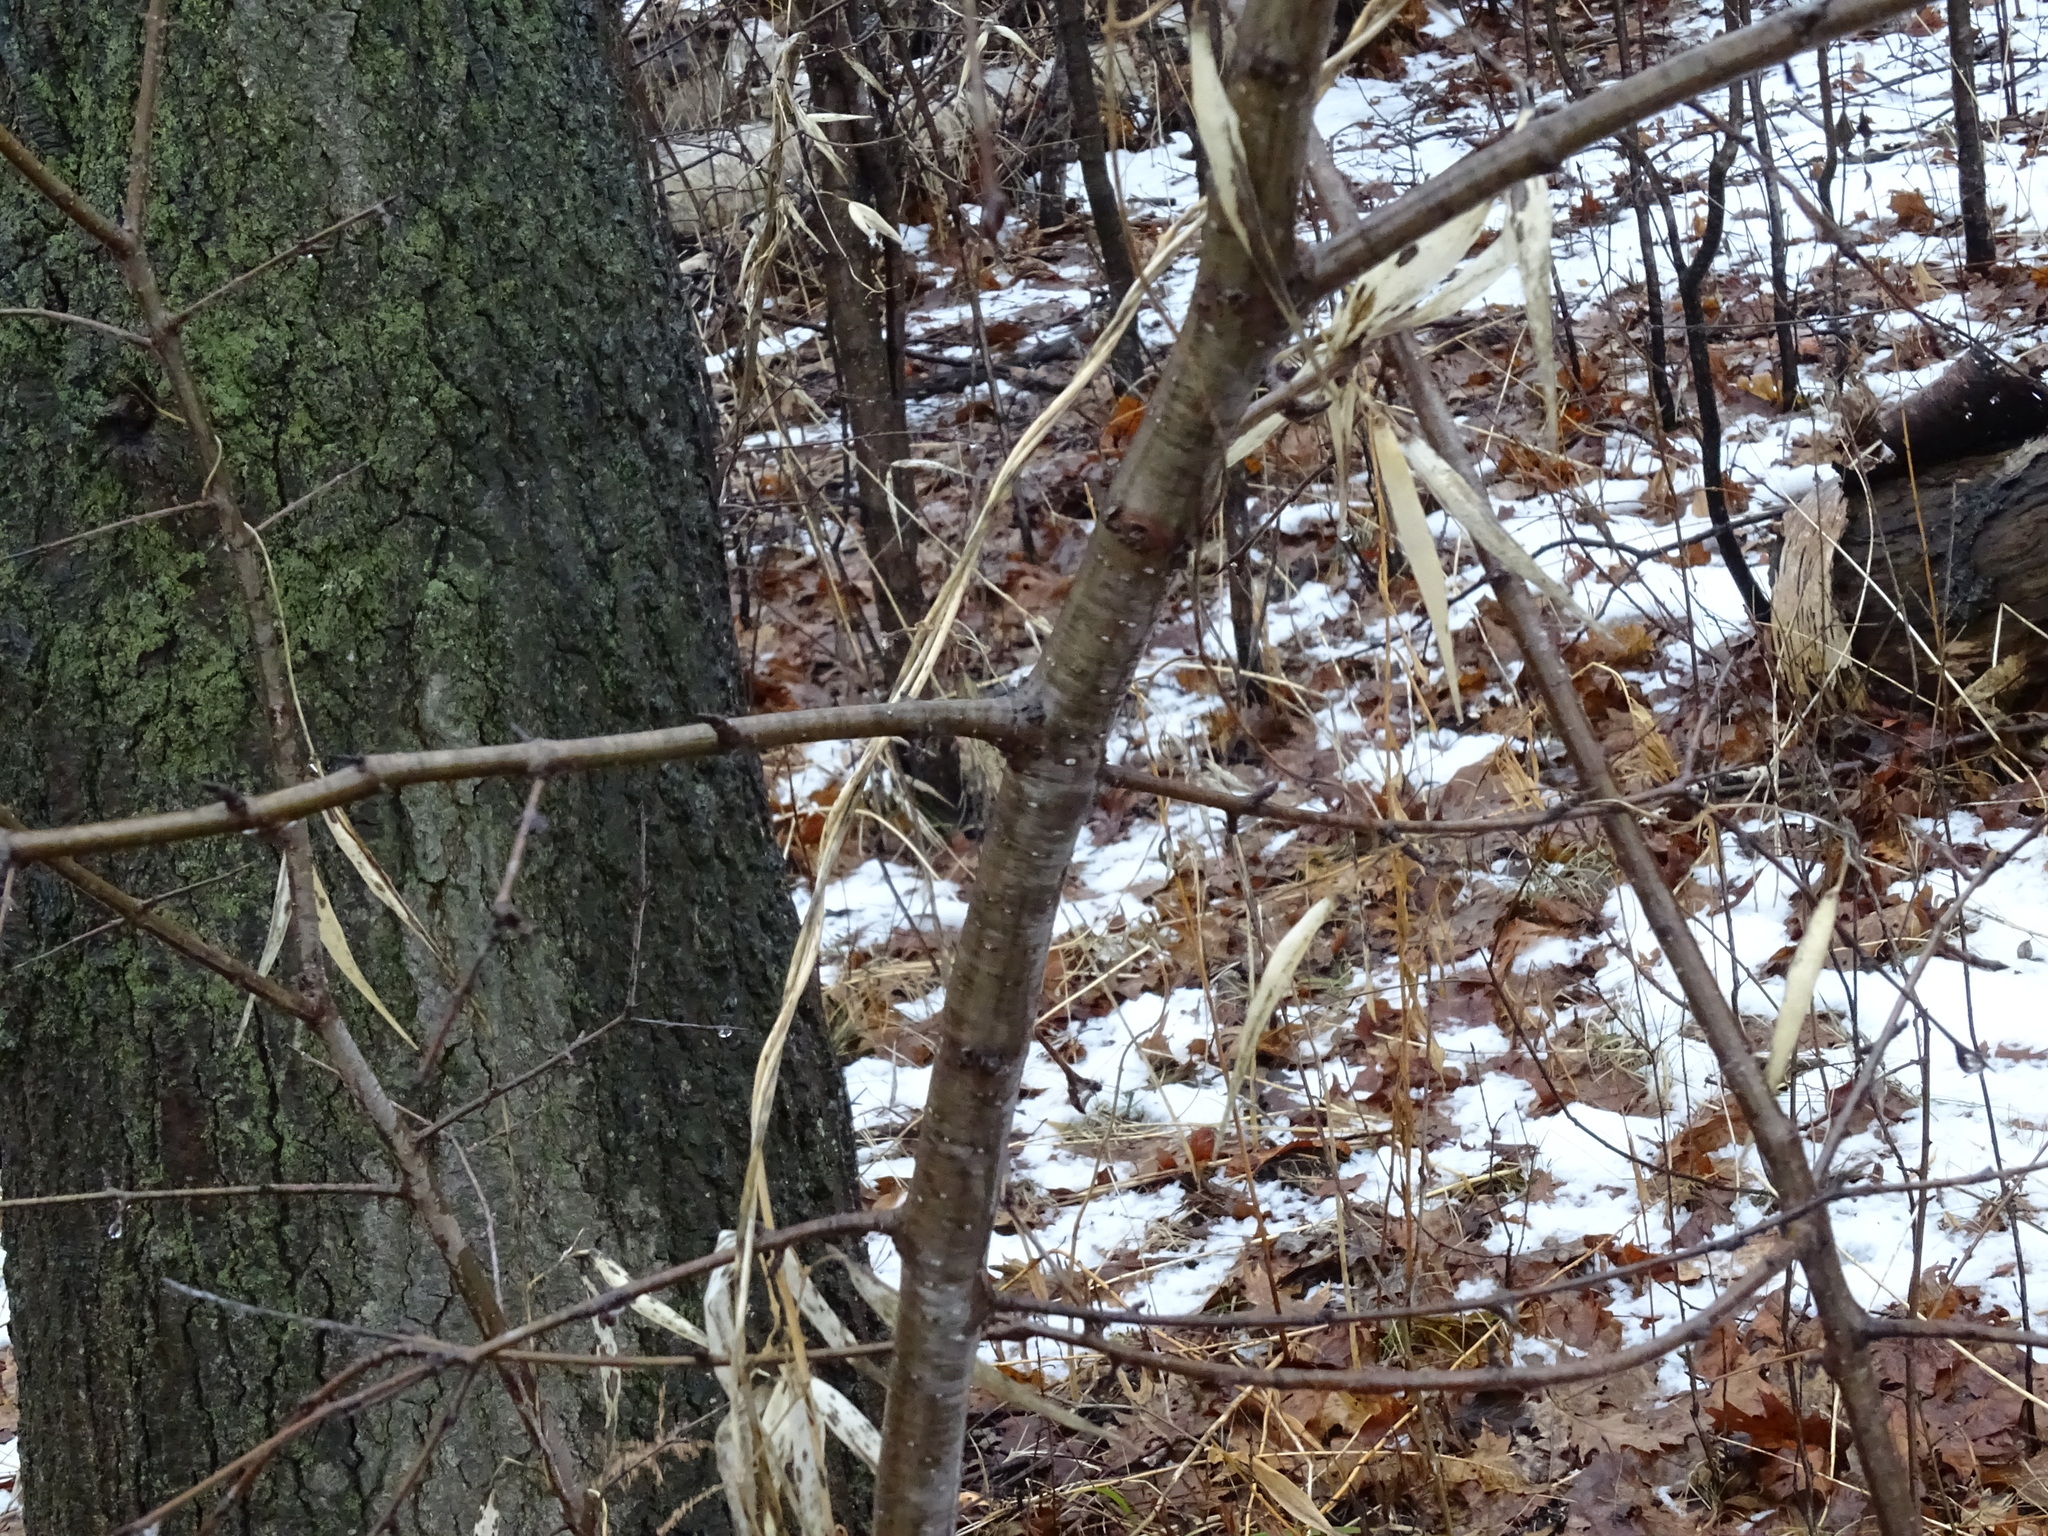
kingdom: Plantae
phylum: Tracheophyta
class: Magnoliopsida
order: Rosales
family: Rhamnaceae
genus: Rhamnus
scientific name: Rhamnus cathartica
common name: Common buckthorn
